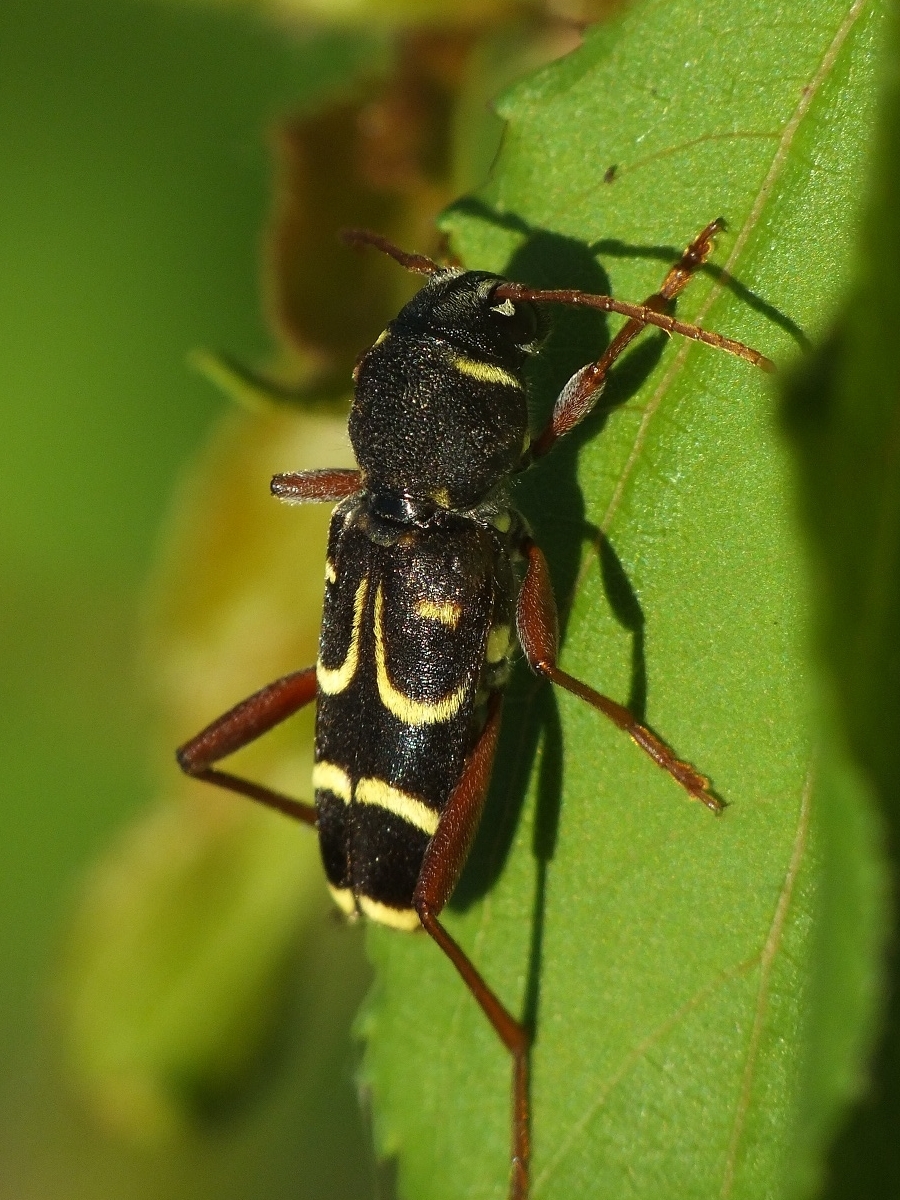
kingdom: Animalia
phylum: Arthropoda
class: Insecta
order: Coleoptera
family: Cerambycidae
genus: Xylotrechus
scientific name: Xylotrechus arvicola
